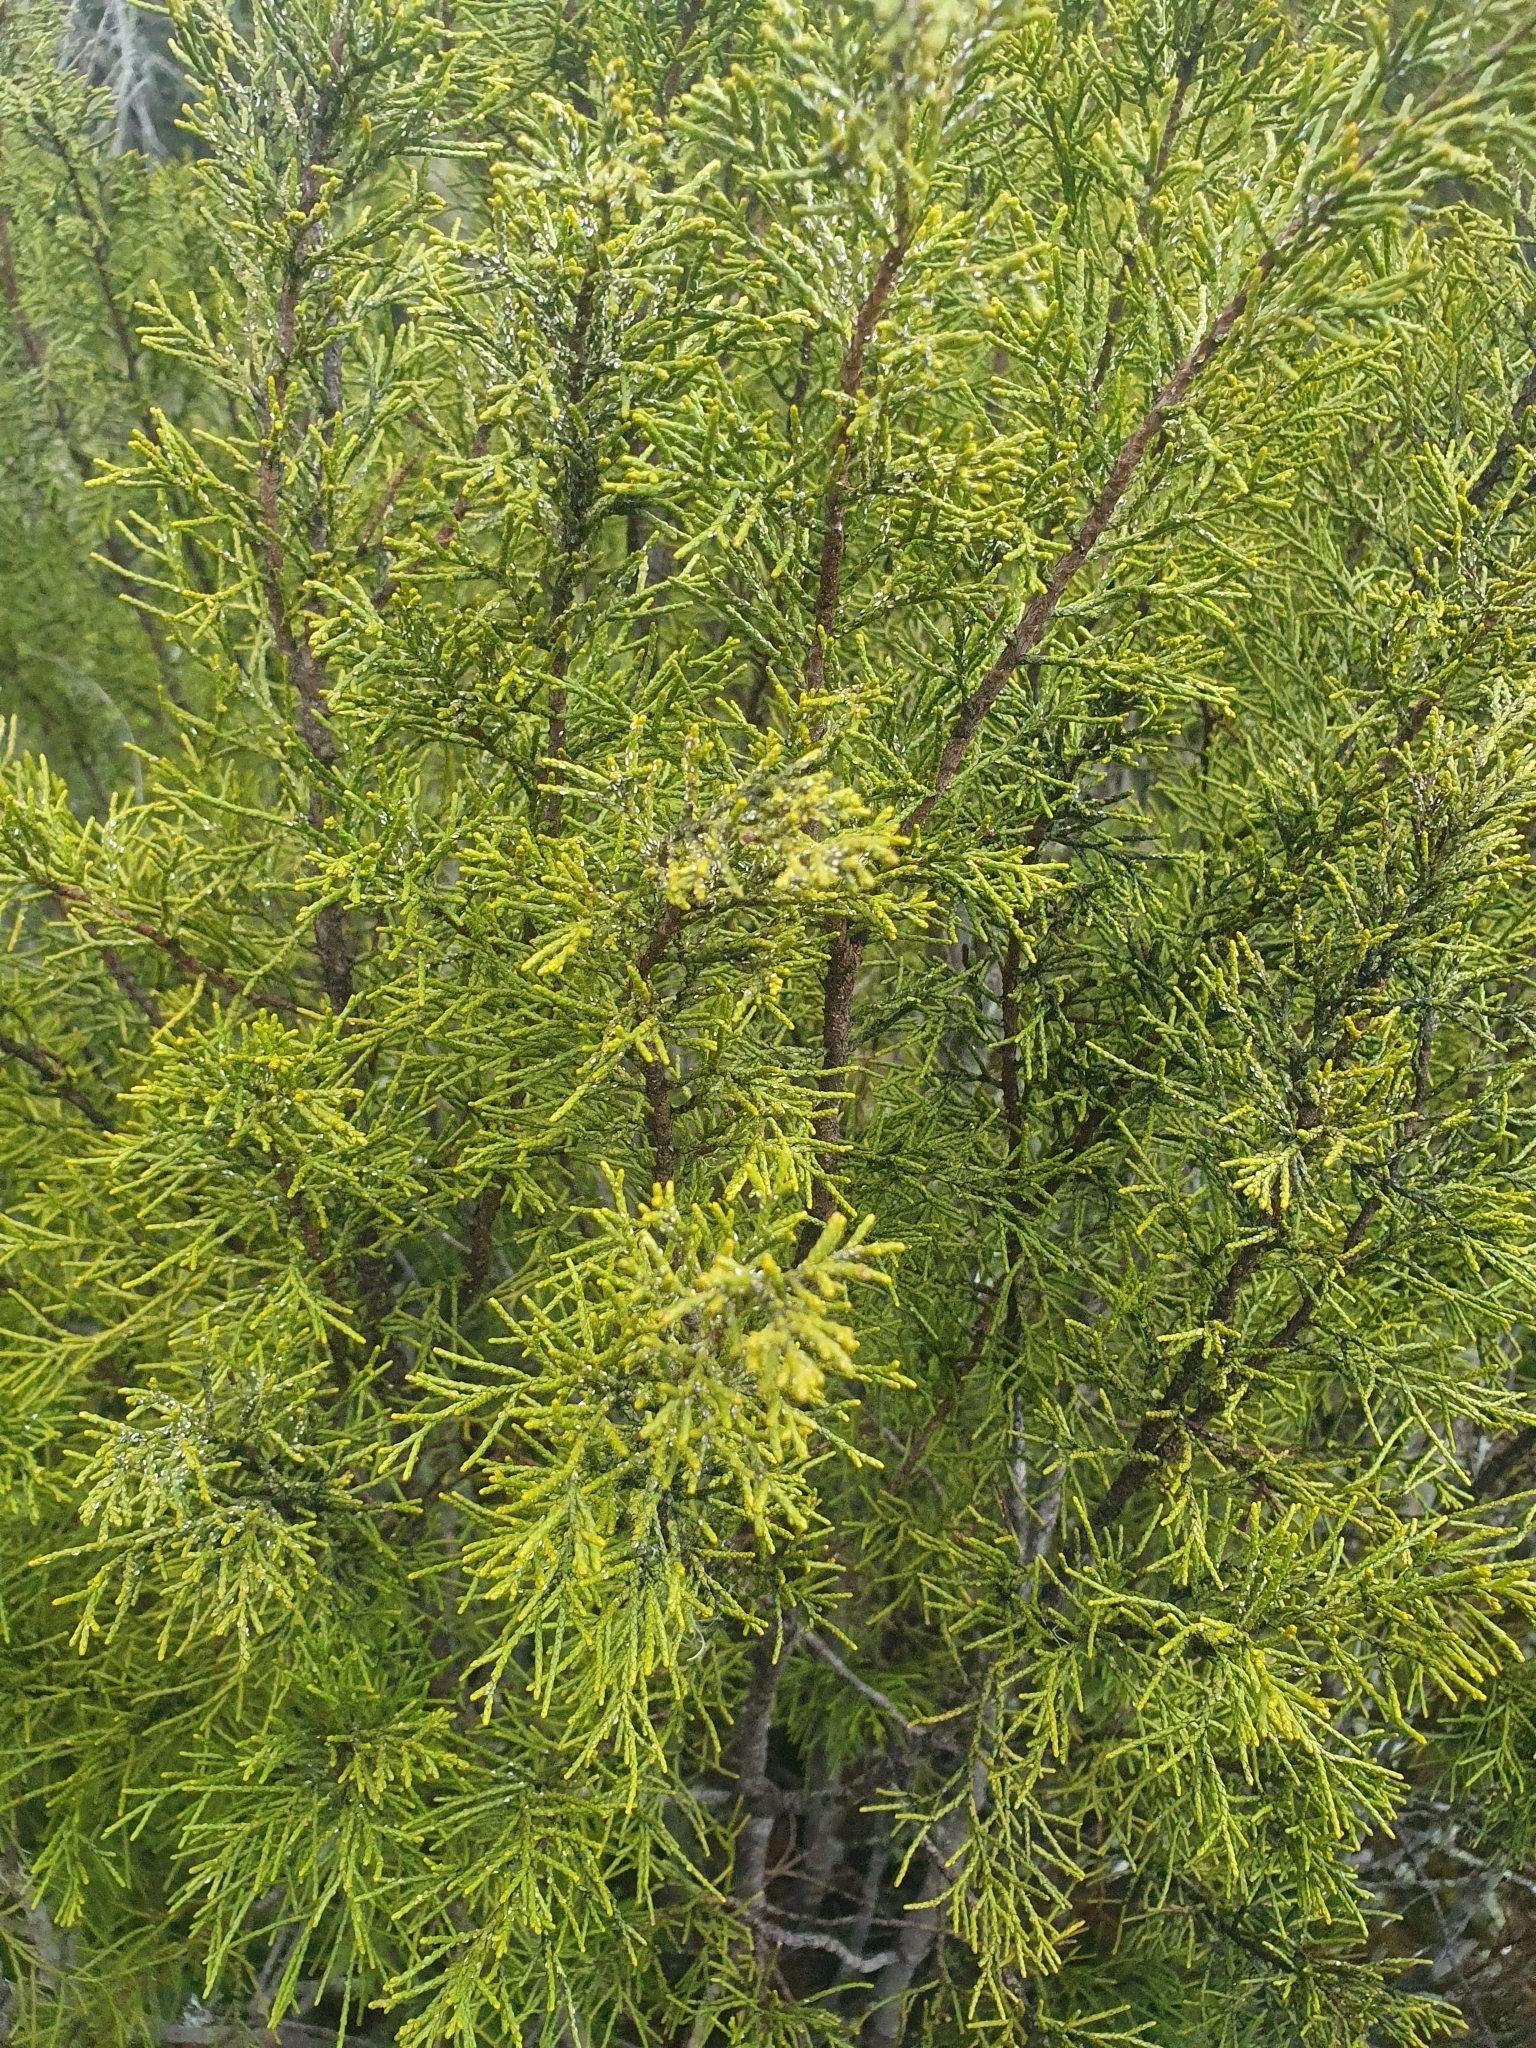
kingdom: Plantae
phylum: Tracheophyta
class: Pinopsida
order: Pinales
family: Podocarpaceae
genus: Halocarpus
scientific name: Halocarpus bidwillii
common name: Bog pine
